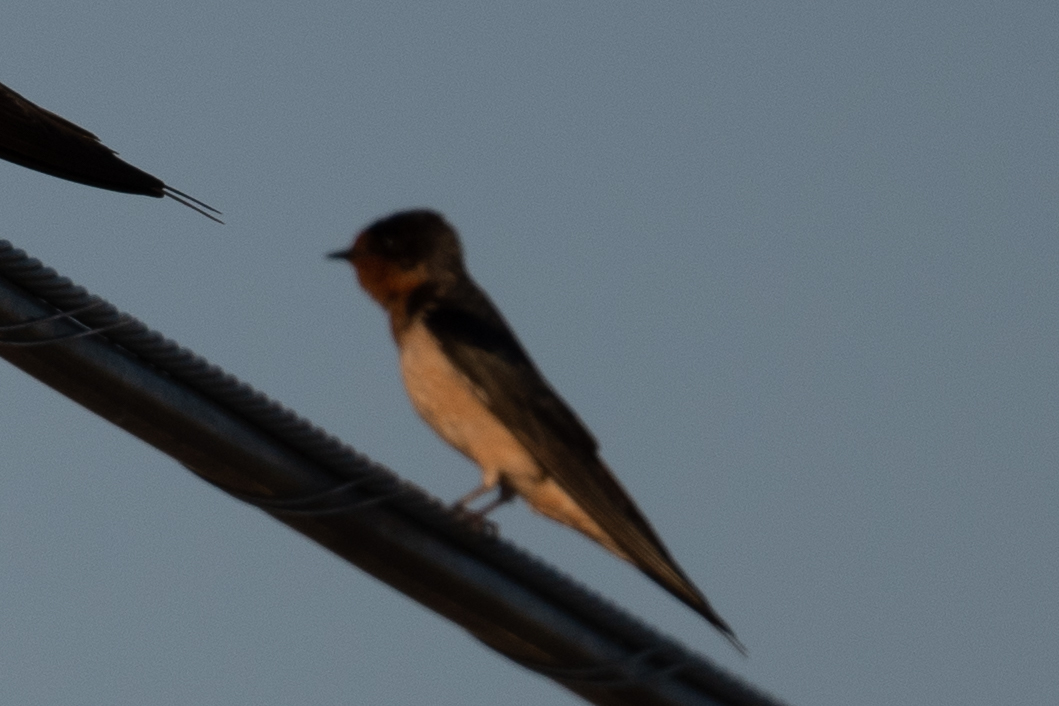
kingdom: Animalia
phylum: Chordata
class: Aves
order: Passeriformes
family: Hirundinidae
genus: Hirundo
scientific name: Hirundo rustica
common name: Barn swallow
